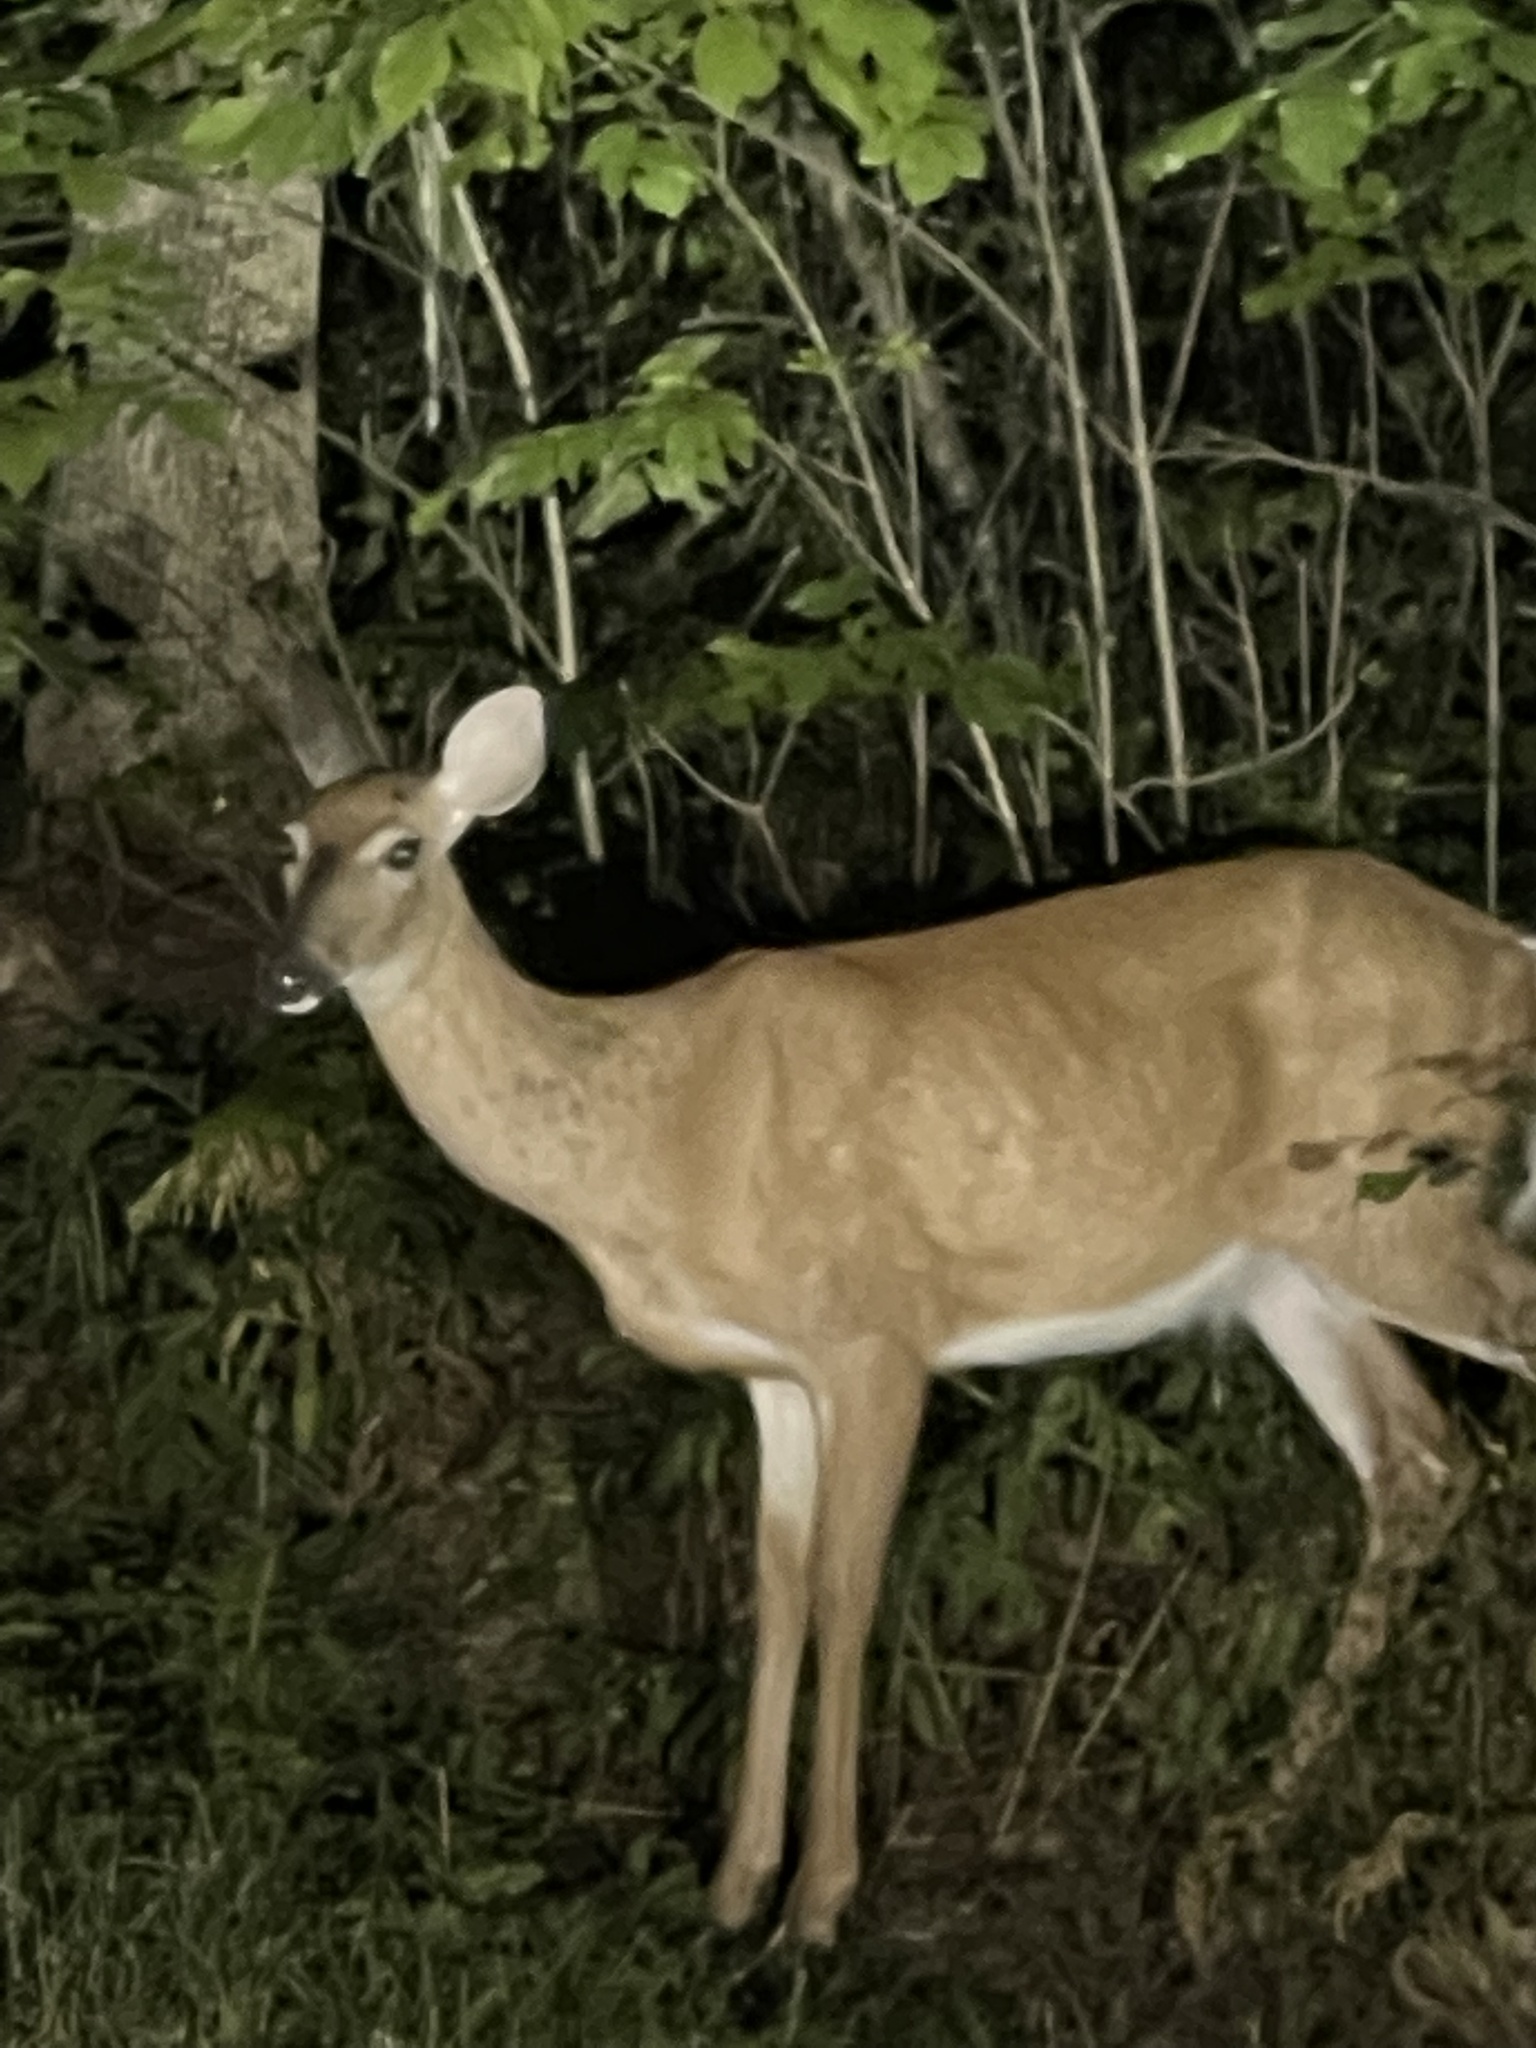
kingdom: Animalia
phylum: Chordata
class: Mammalia
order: Artiodactyla
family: Cervidae
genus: Odocoileus
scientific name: Odocoileus virginianus
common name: White-tailed deer
